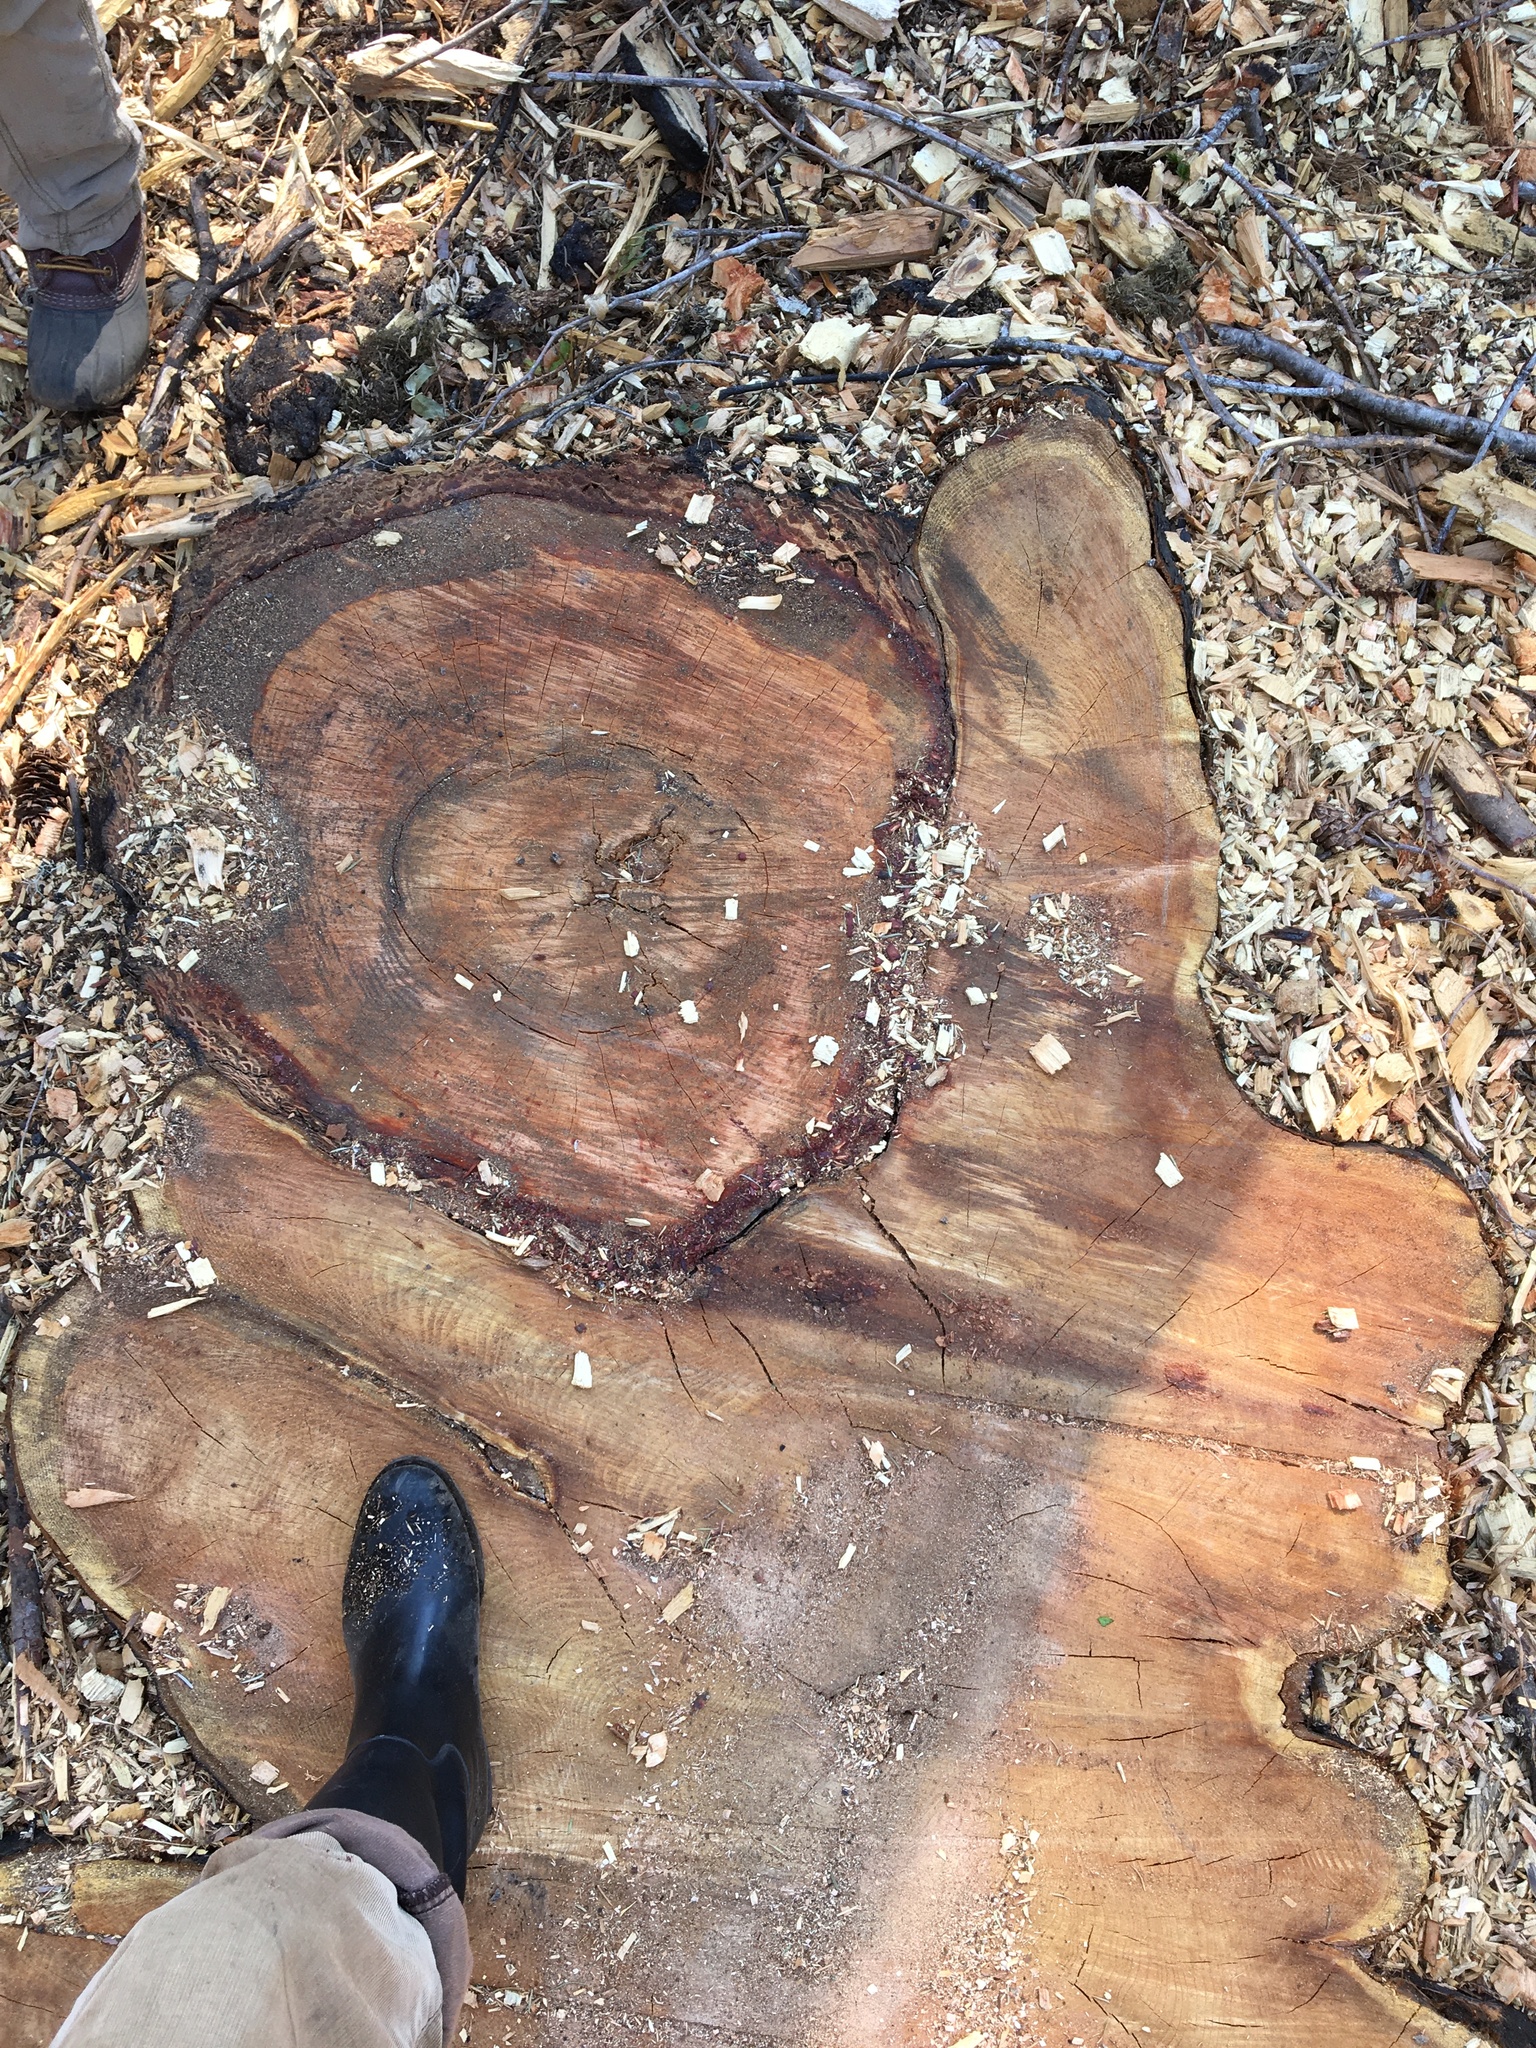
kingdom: Plantae
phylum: Tracheophyta
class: Pinopsida
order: Pinales
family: Cupressaceae
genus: Calocedrus
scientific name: Calocedrus decurrens
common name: Californian incense-cedar
